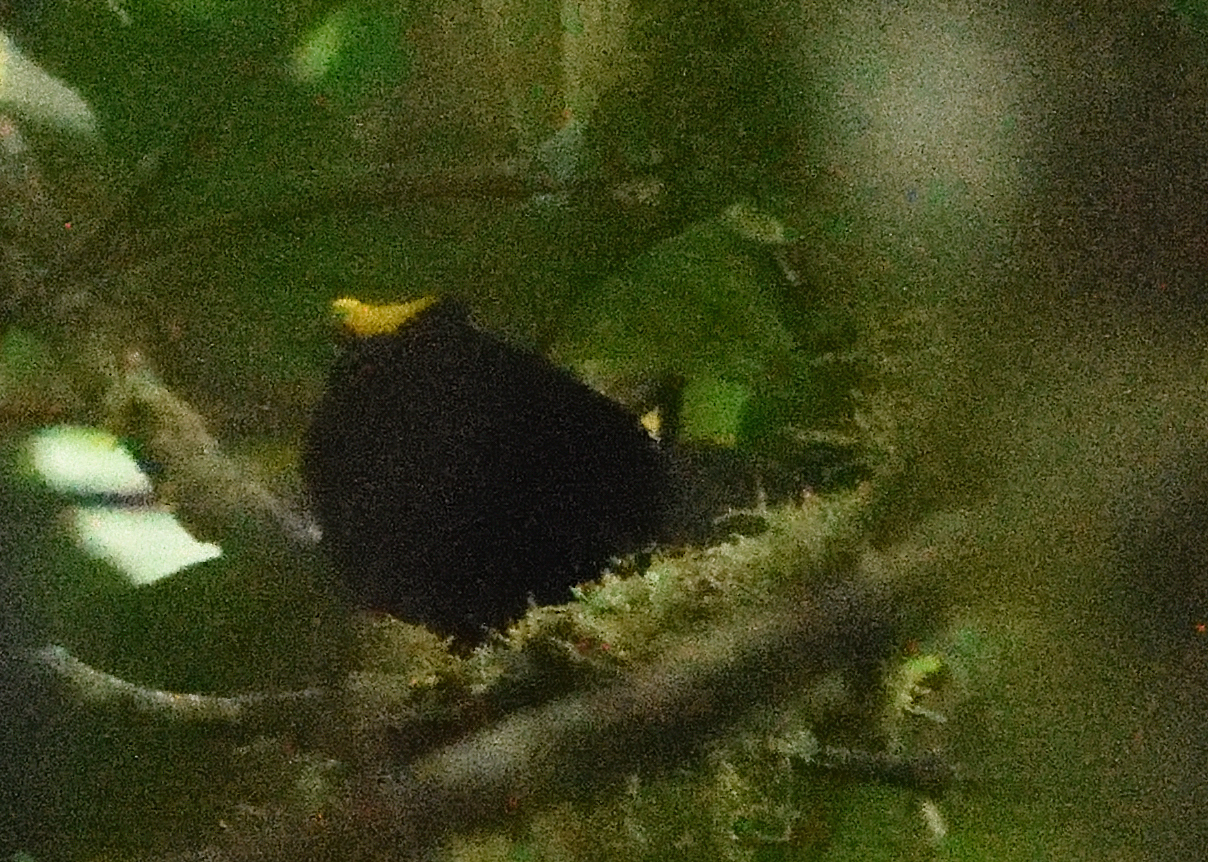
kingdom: Animalia
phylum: Chordata
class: Aves
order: Passeriformes
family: Pipridae
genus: Masius
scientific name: Masius chrysopterus
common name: Golden-winged manakin
